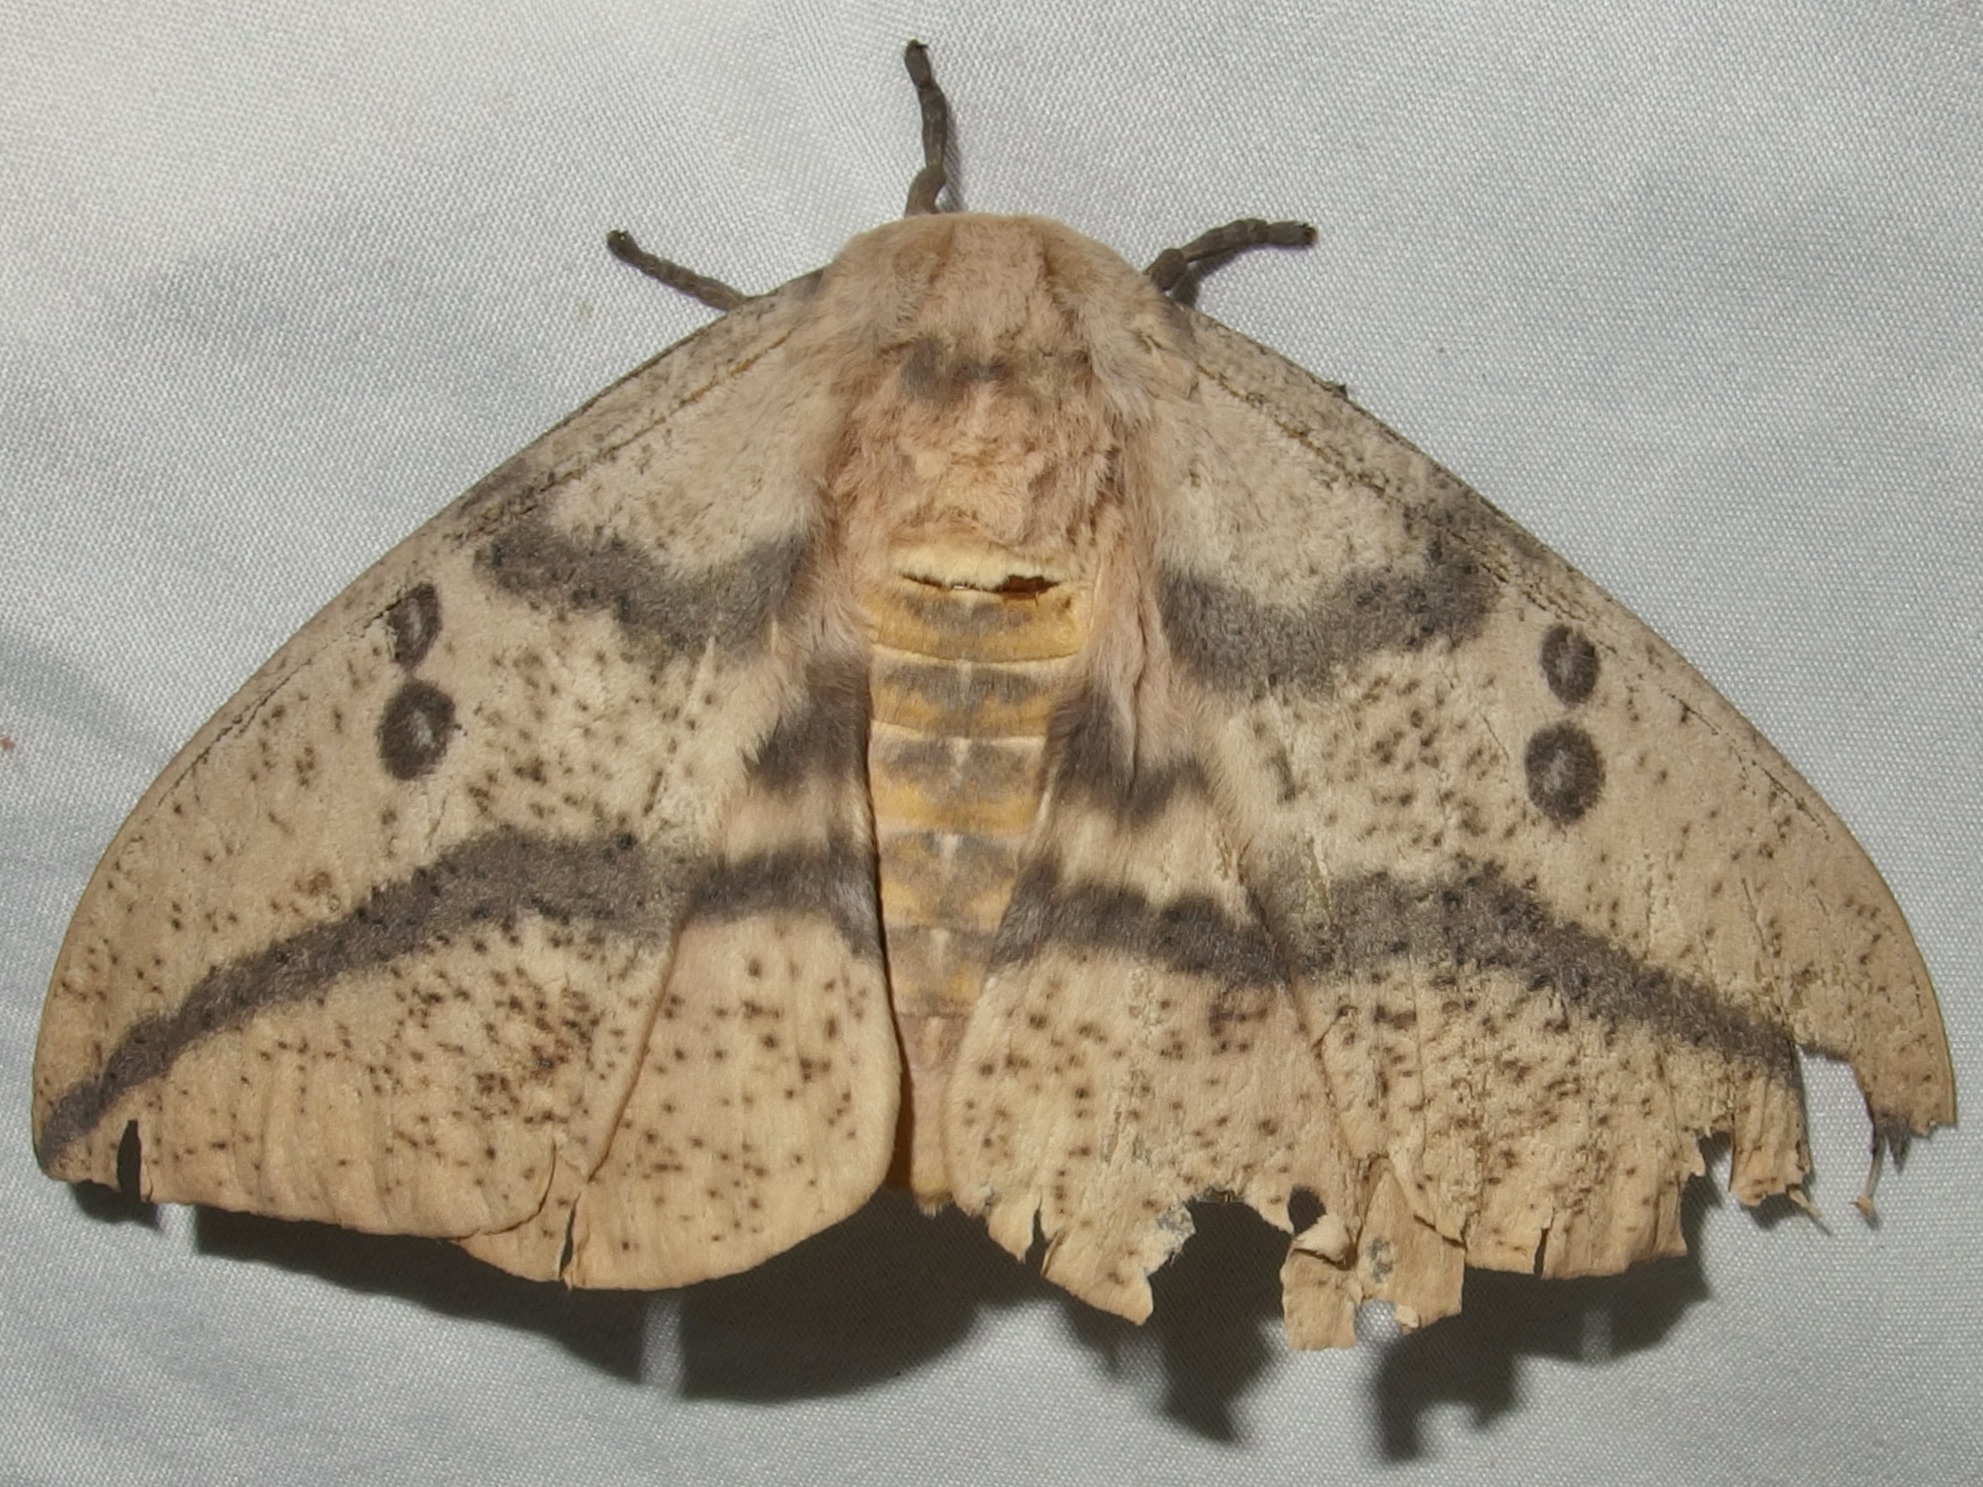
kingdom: Animalia
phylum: Arthropoda
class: Insecta
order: Lepidoptera
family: Saturniidae
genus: Eacles
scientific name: Eacles oslari
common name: Oslar's imperial moth
